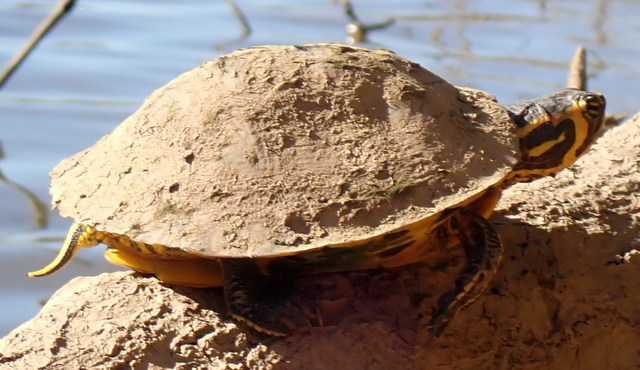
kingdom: Animalia
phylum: Chordata
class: Testudines
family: Emydidae
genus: Trachemys
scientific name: Trachemys scripta
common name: Slider
